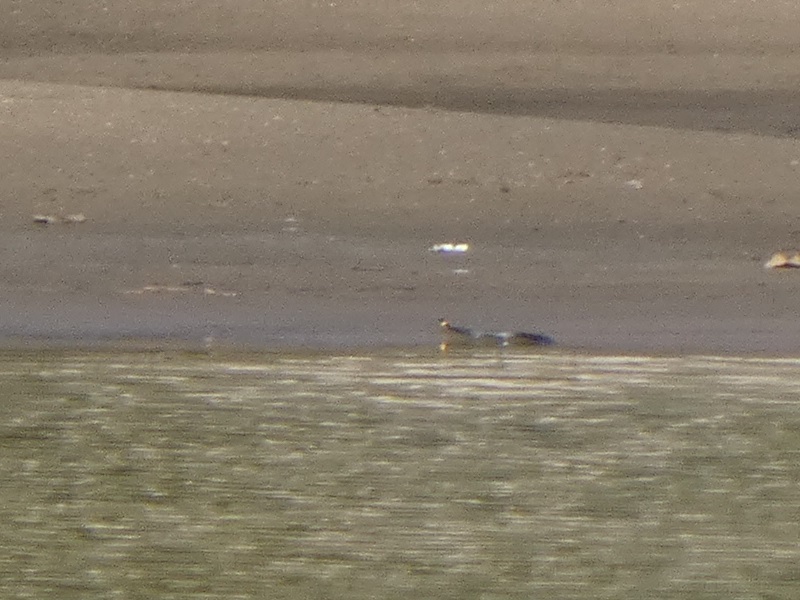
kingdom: Animalia
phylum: Chordata
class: Squamata
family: Colubridae
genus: Natrix
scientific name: Natrix natrix
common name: Grass snake
